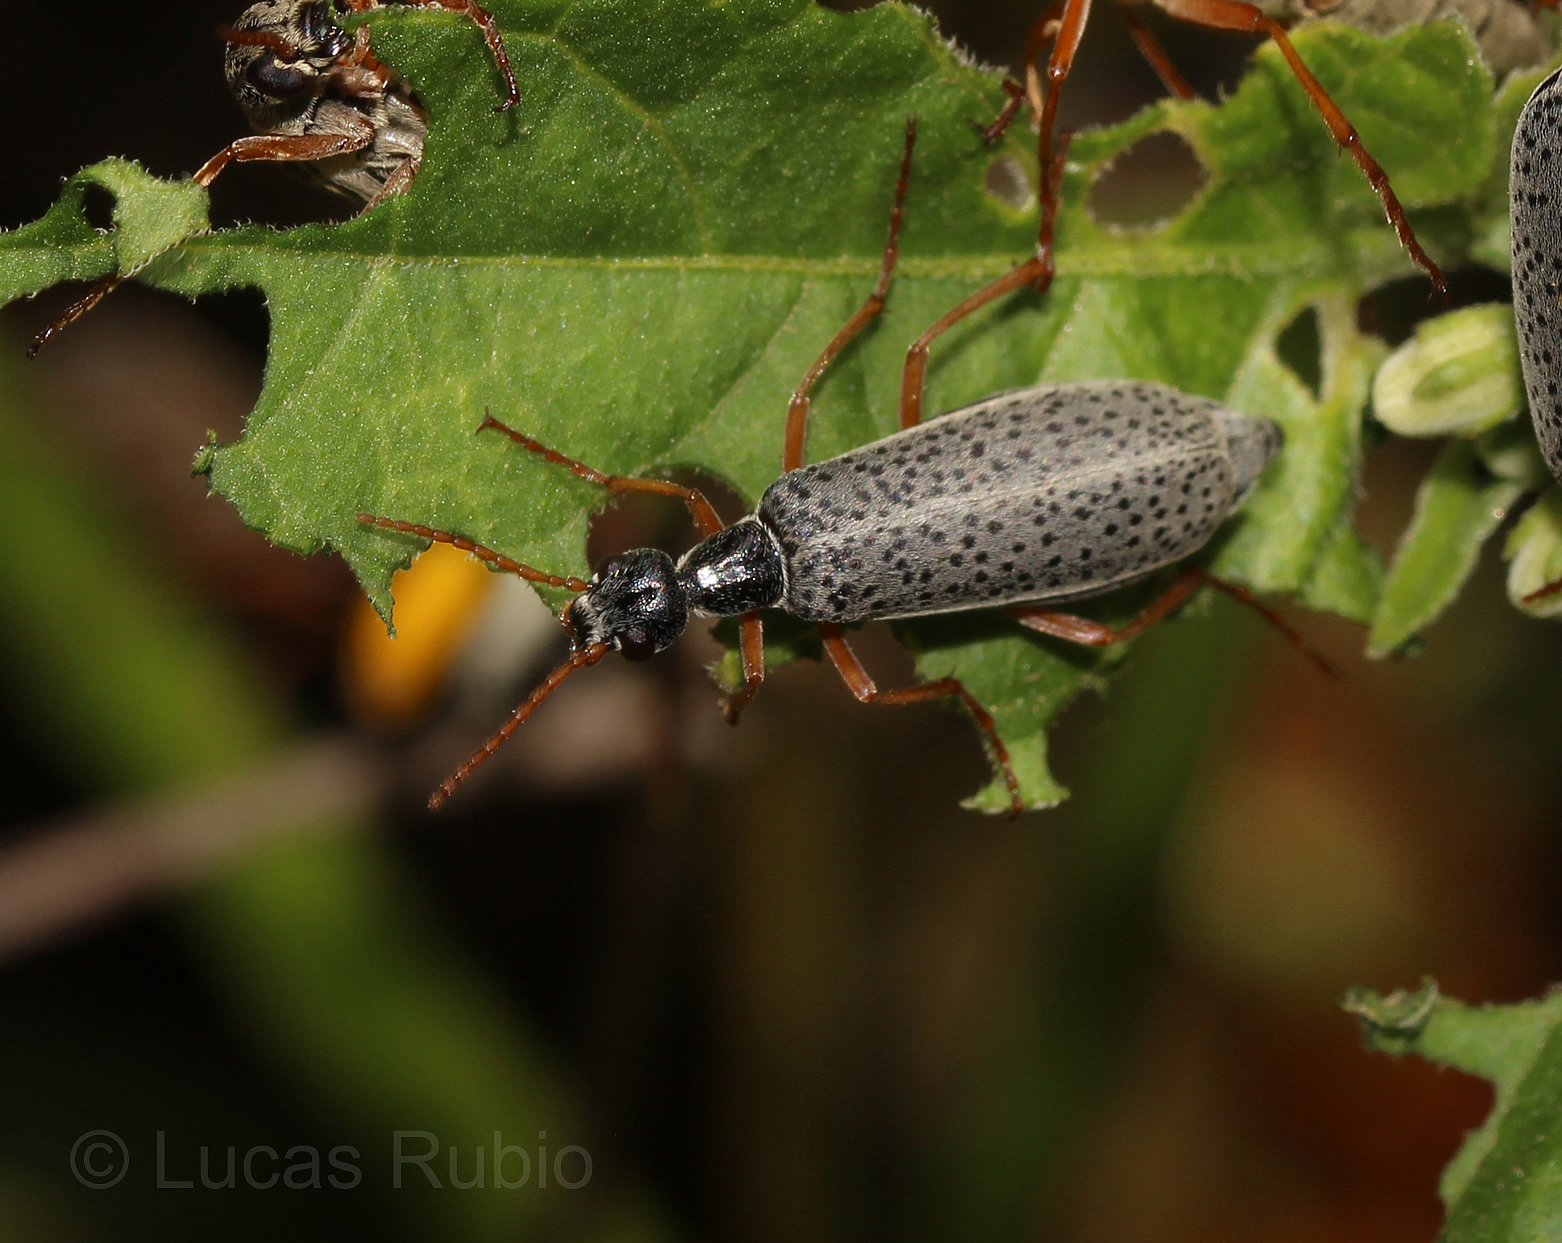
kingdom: Animalia
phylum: Arthropoda
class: Insecta
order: Coleoptera
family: Meloidae
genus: Epicauta
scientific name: Epicauta
